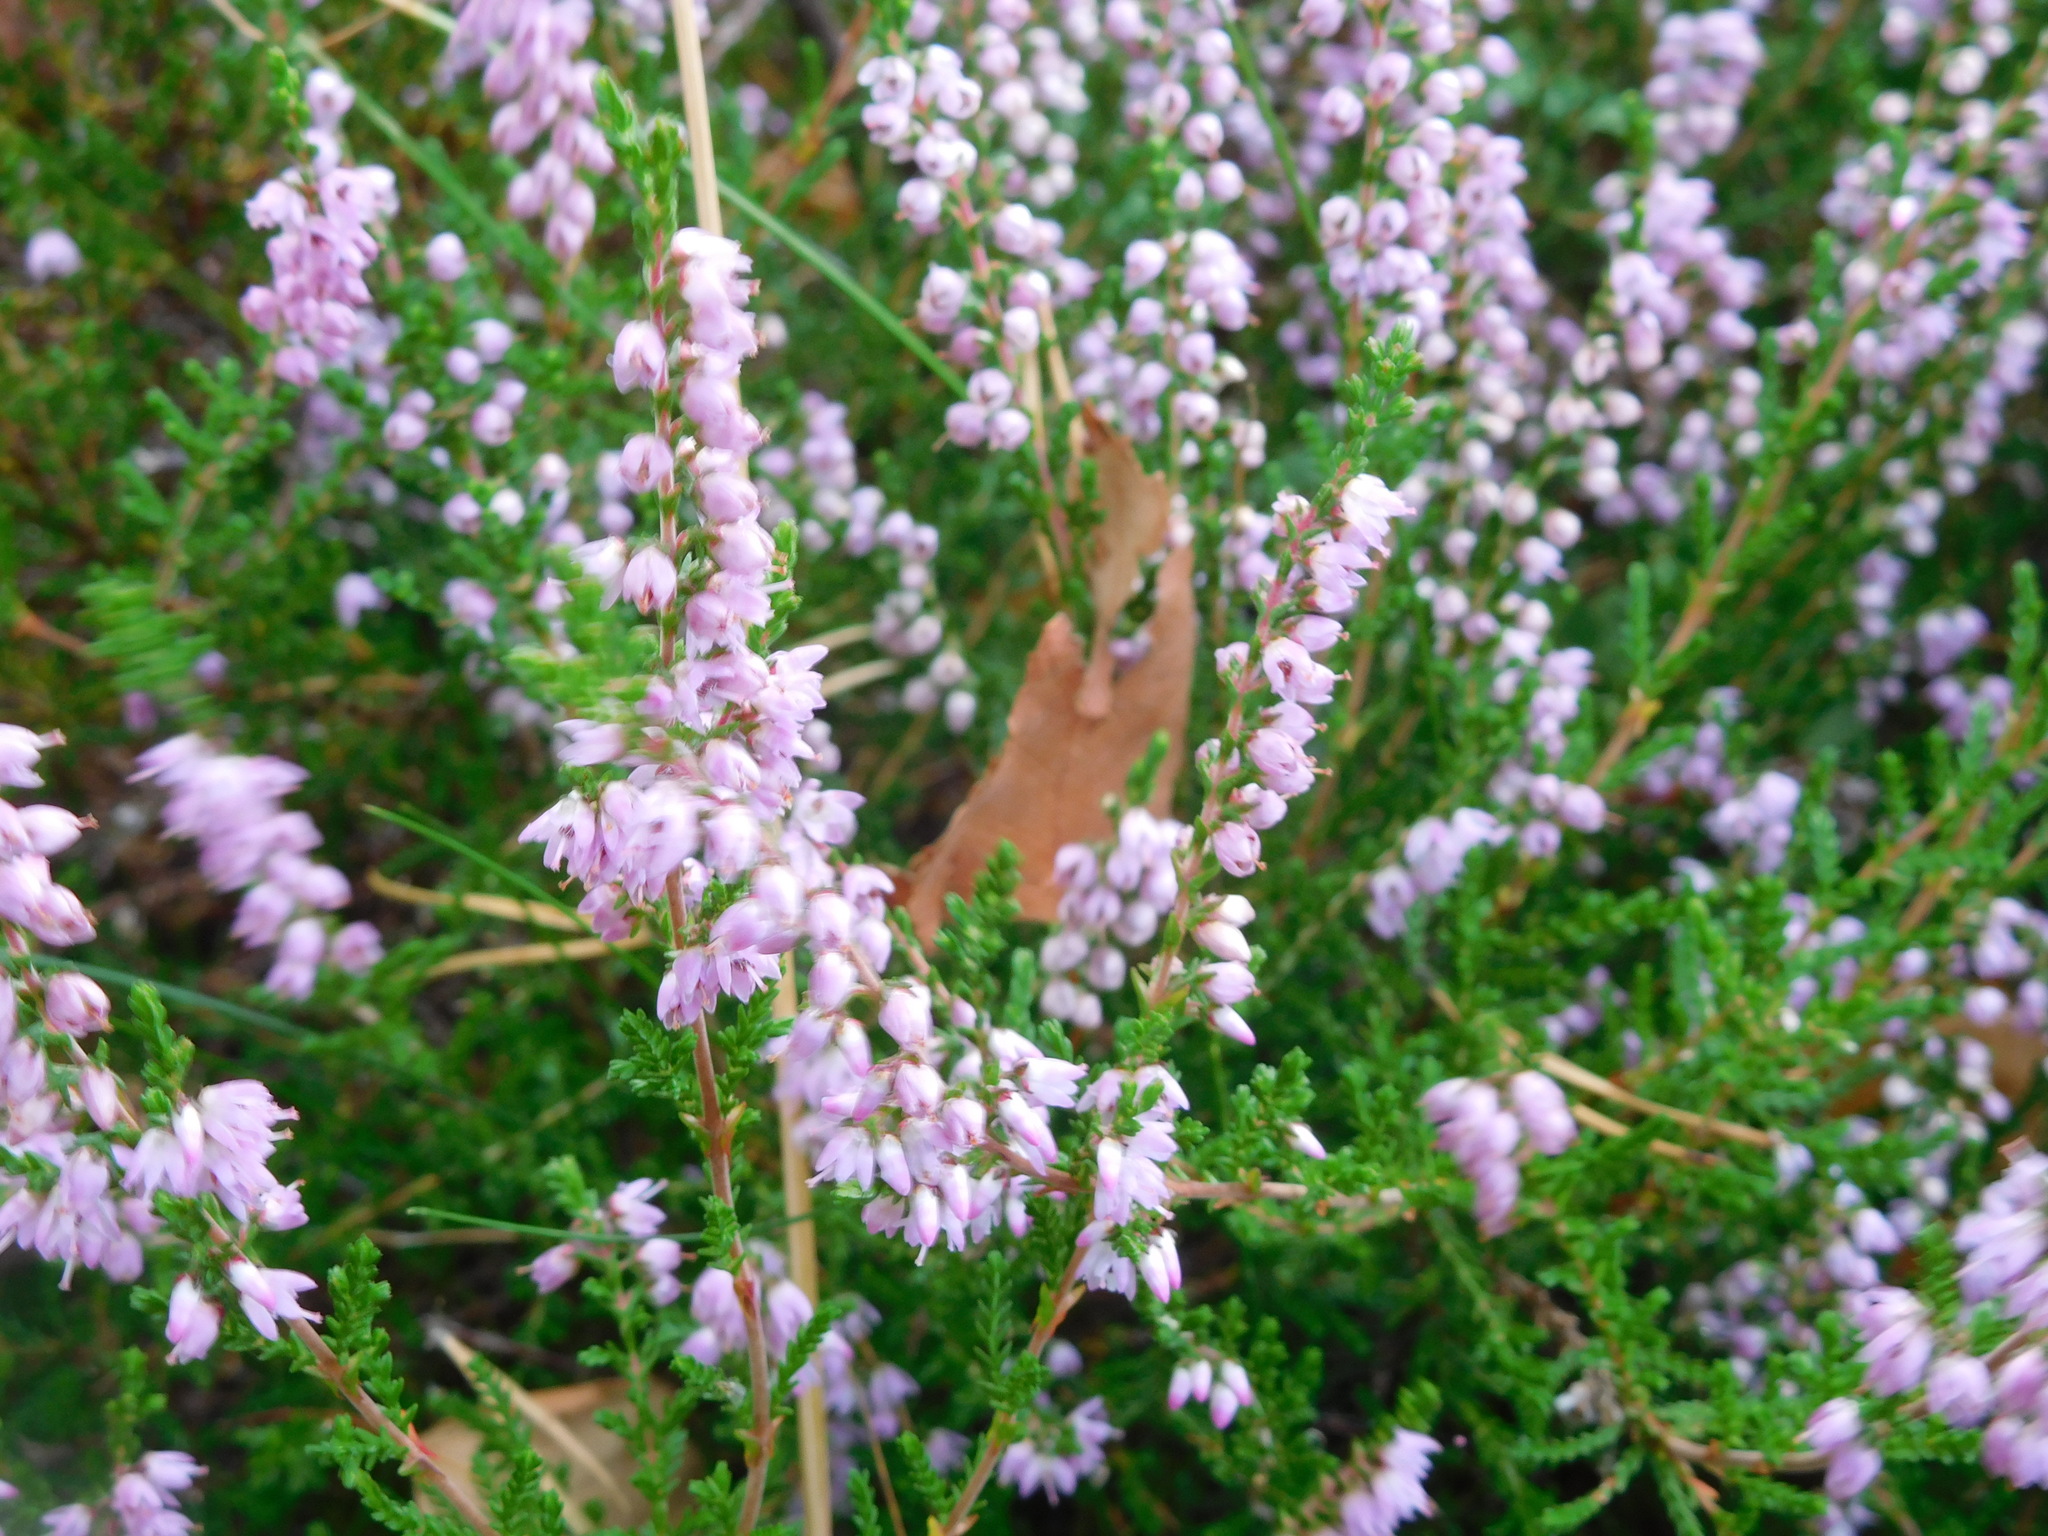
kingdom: Plantae
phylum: Tracheophyta
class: Magnoliopsida
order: Ericales
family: Ericaceae
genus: Calluna
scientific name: Calluna vulgaris
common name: Heather
